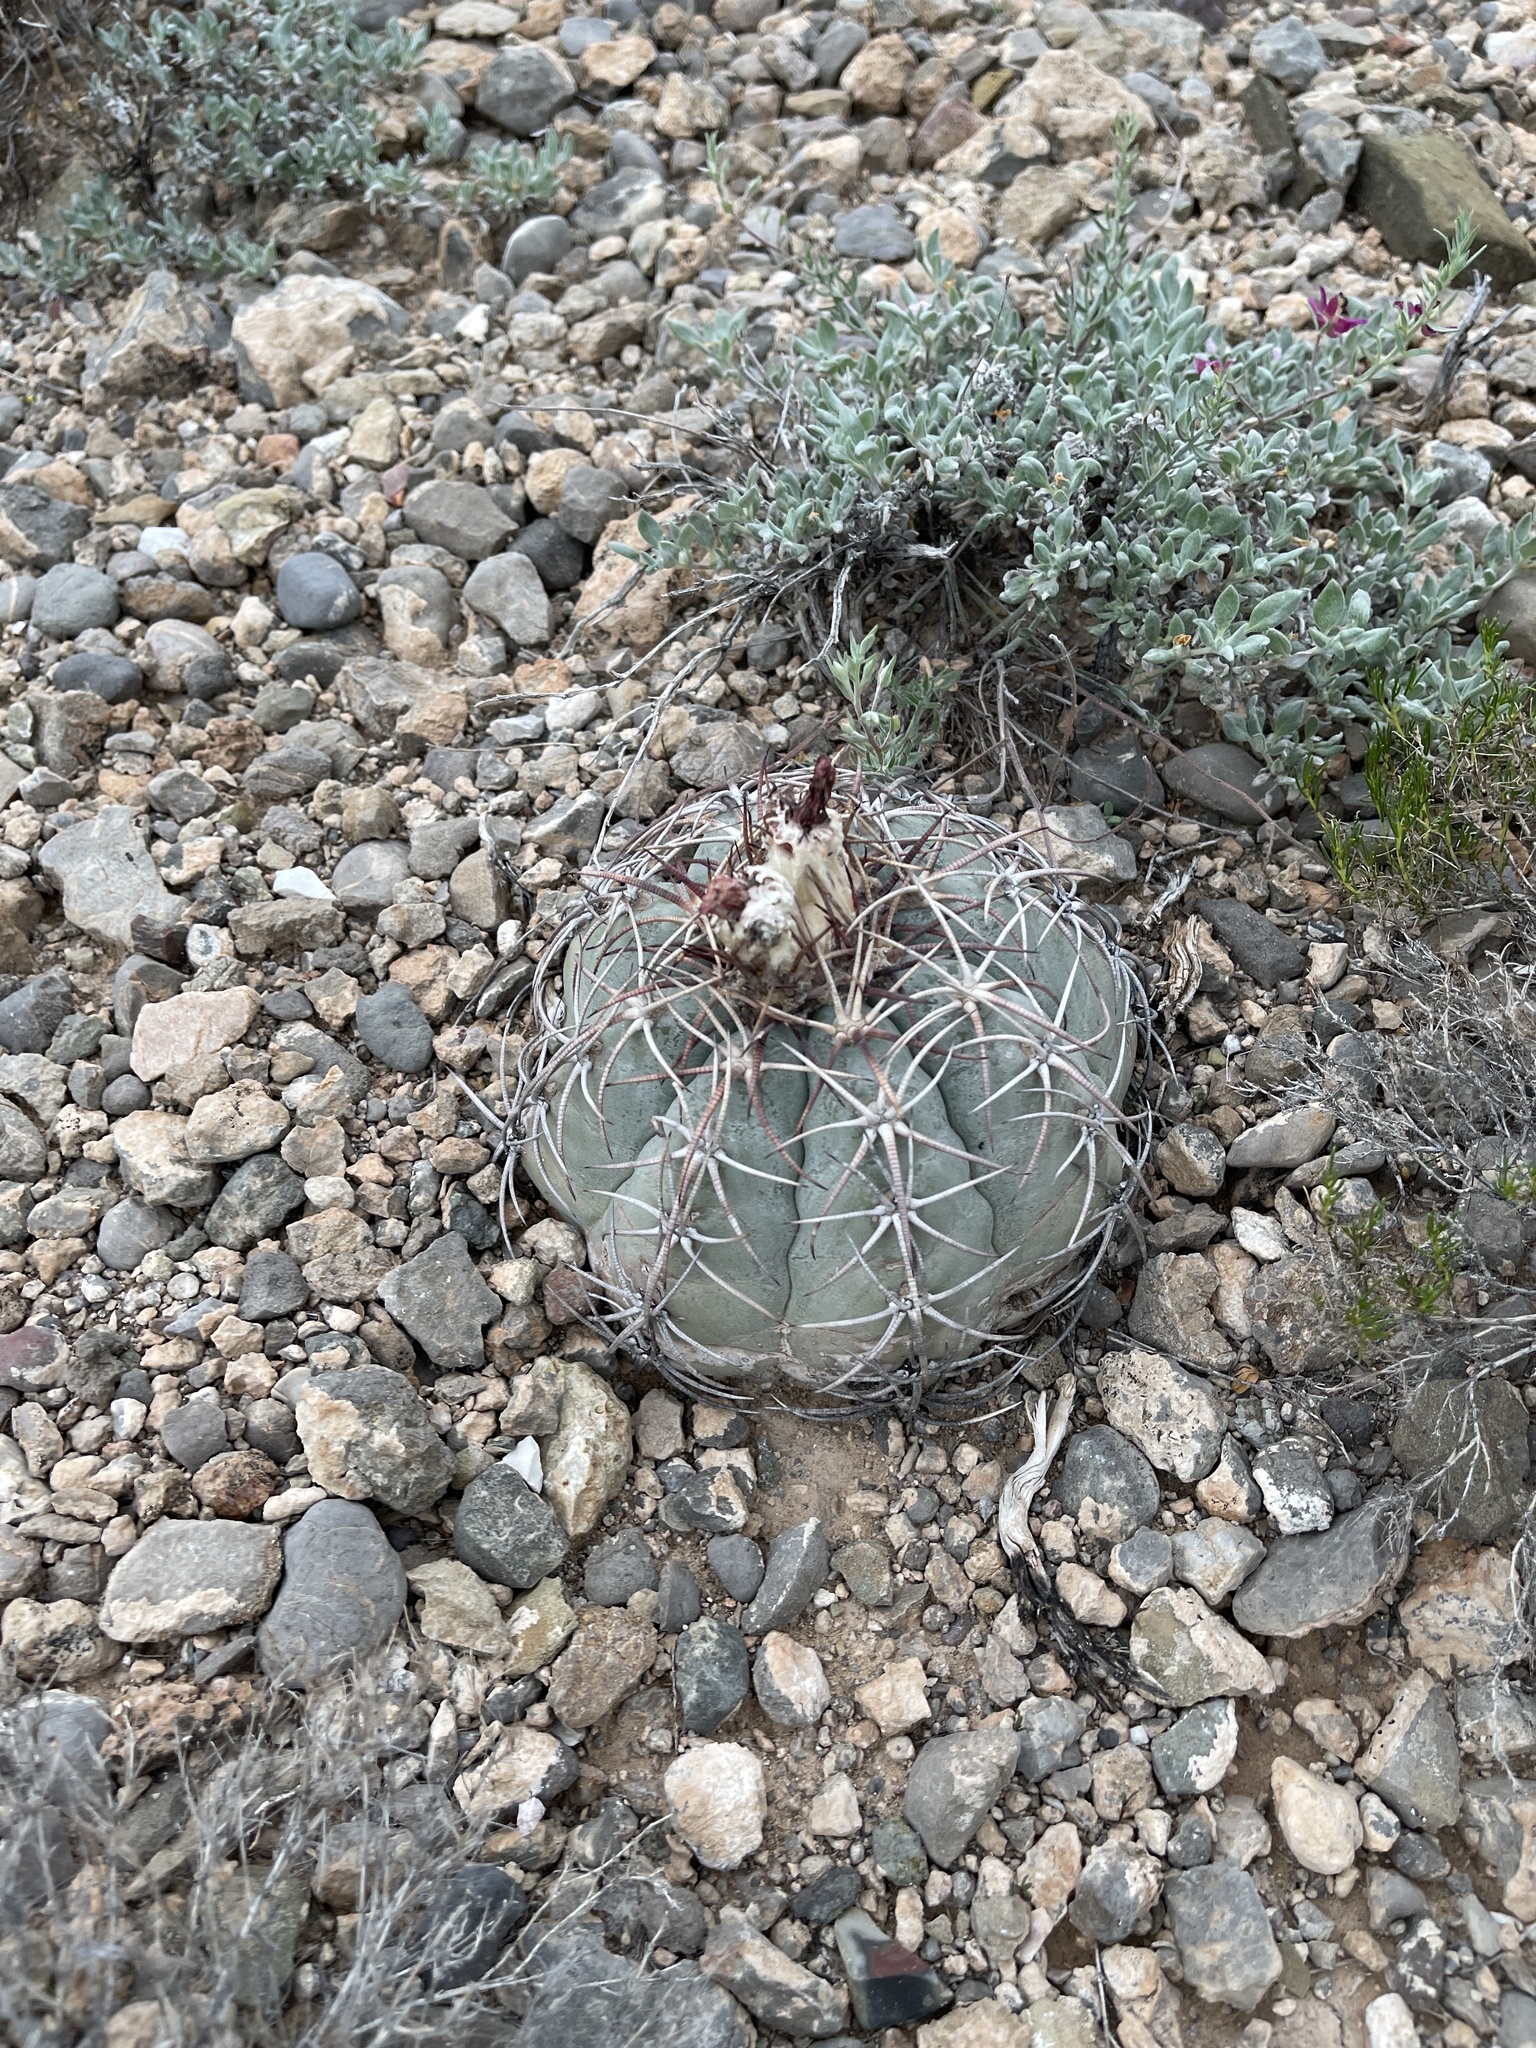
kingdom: Plantae
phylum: Tracheophyta
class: Magnoliopsida
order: Caryophyllales
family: Cactaceae
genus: Echinocactus
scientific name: Echinocactus horizonthalonius
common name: Devilshead
